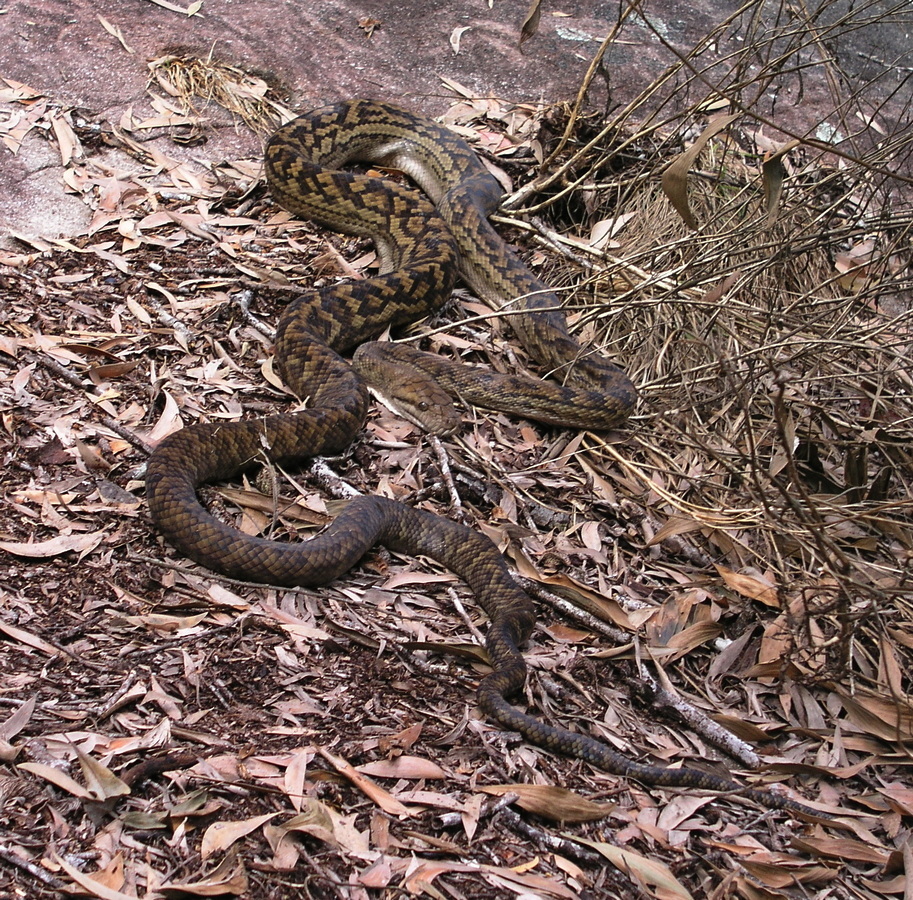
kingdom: Animalia
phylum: Chordata
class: Squamata
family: Pythonidae
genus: Simalia
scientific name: Simalia kinghorni
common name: Scrub python
